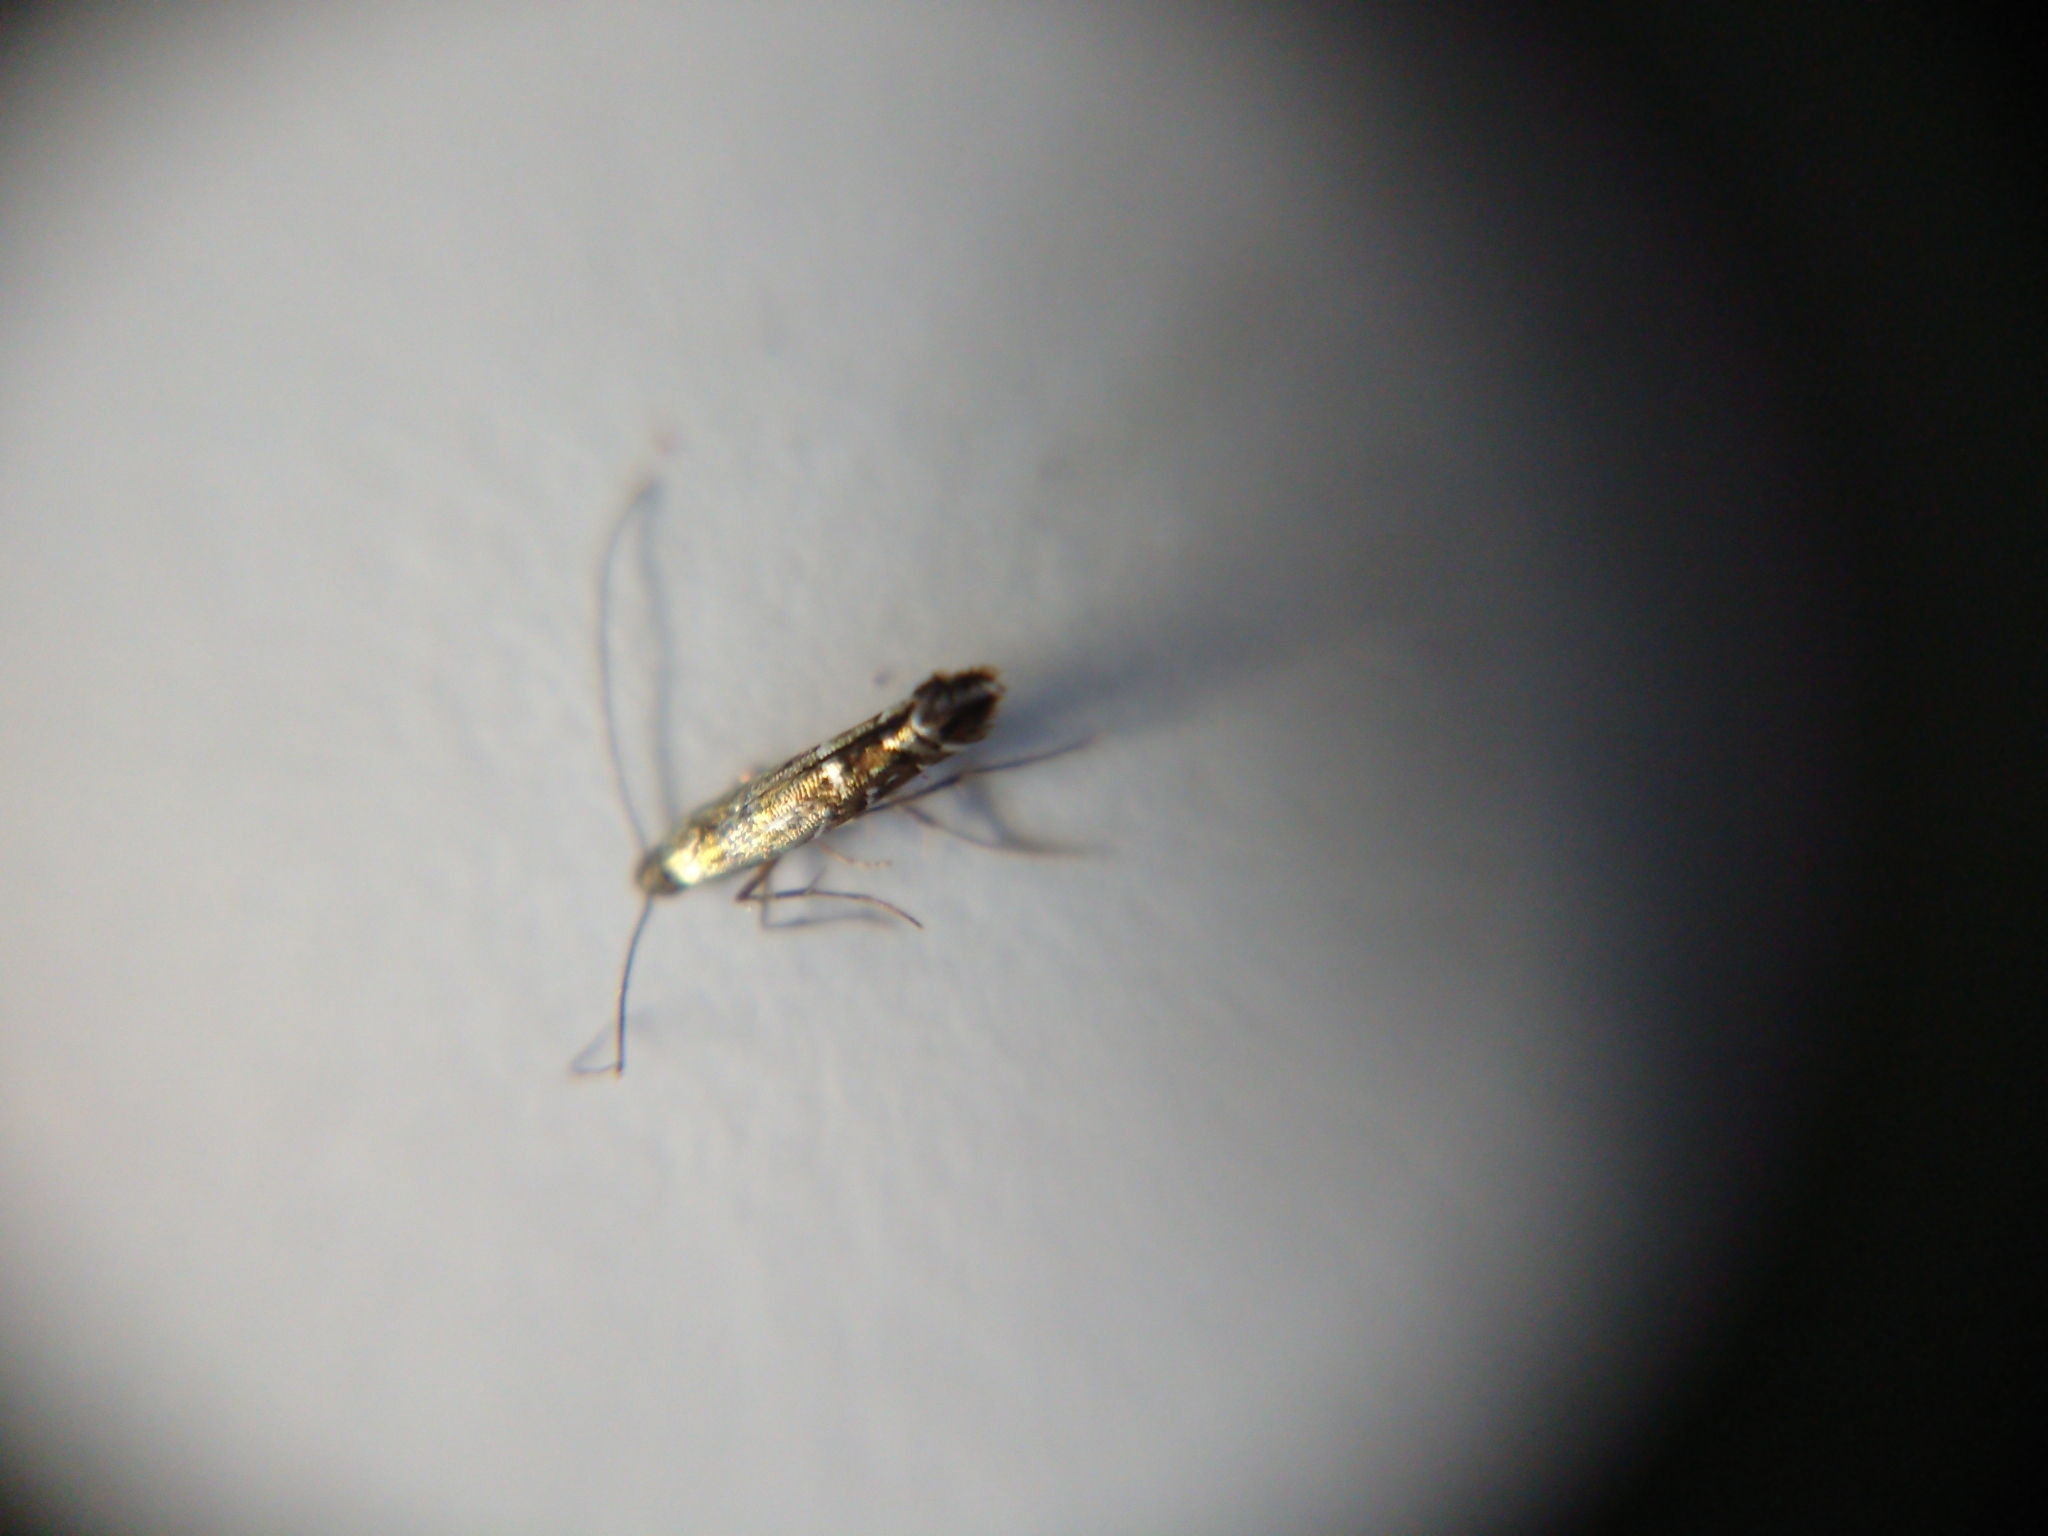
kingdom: Animalia
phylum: Arthropoda
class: Insecta
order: Lepidoptera
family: Gracillariidae
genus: Polysoma
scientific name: Polysoma eumetalla
